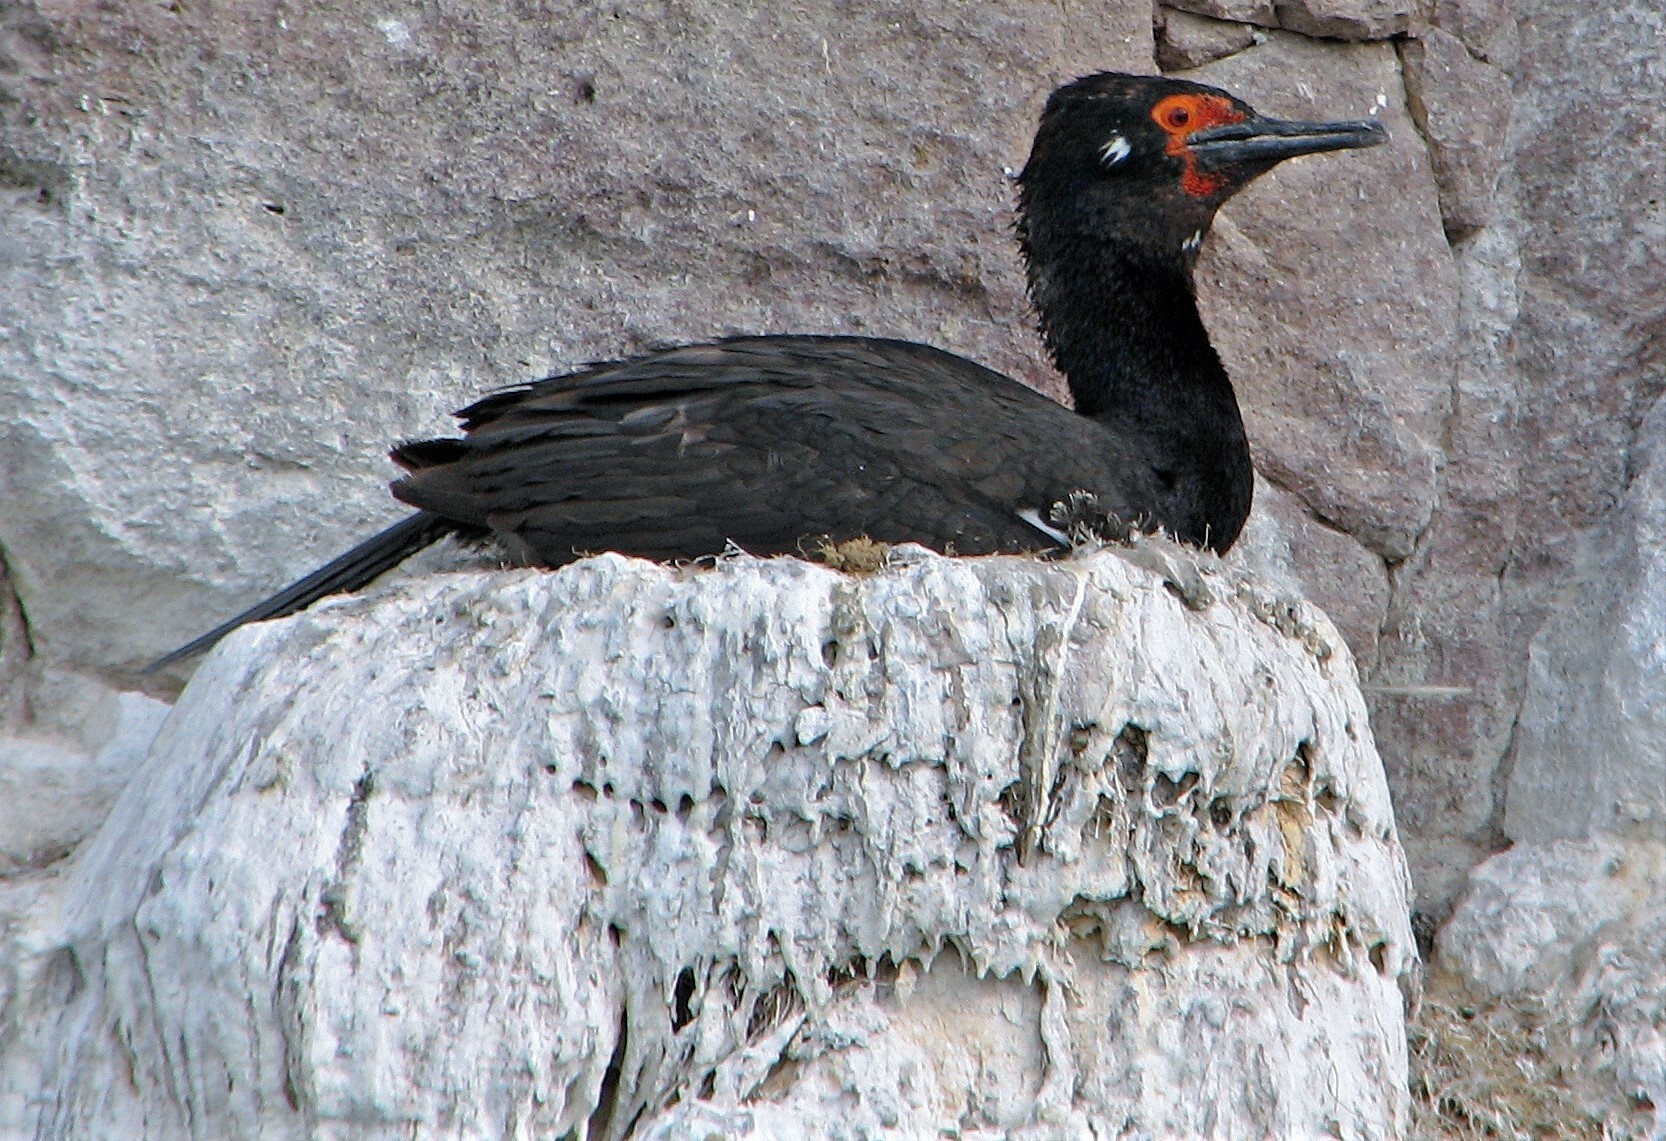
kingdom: Animalia
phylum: Chordata
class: Aves
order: Suliformes
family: Phalacrocoracidae
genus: Phalacrocorax
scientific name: Phalacrocorax magellanicus
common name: Rock shag
